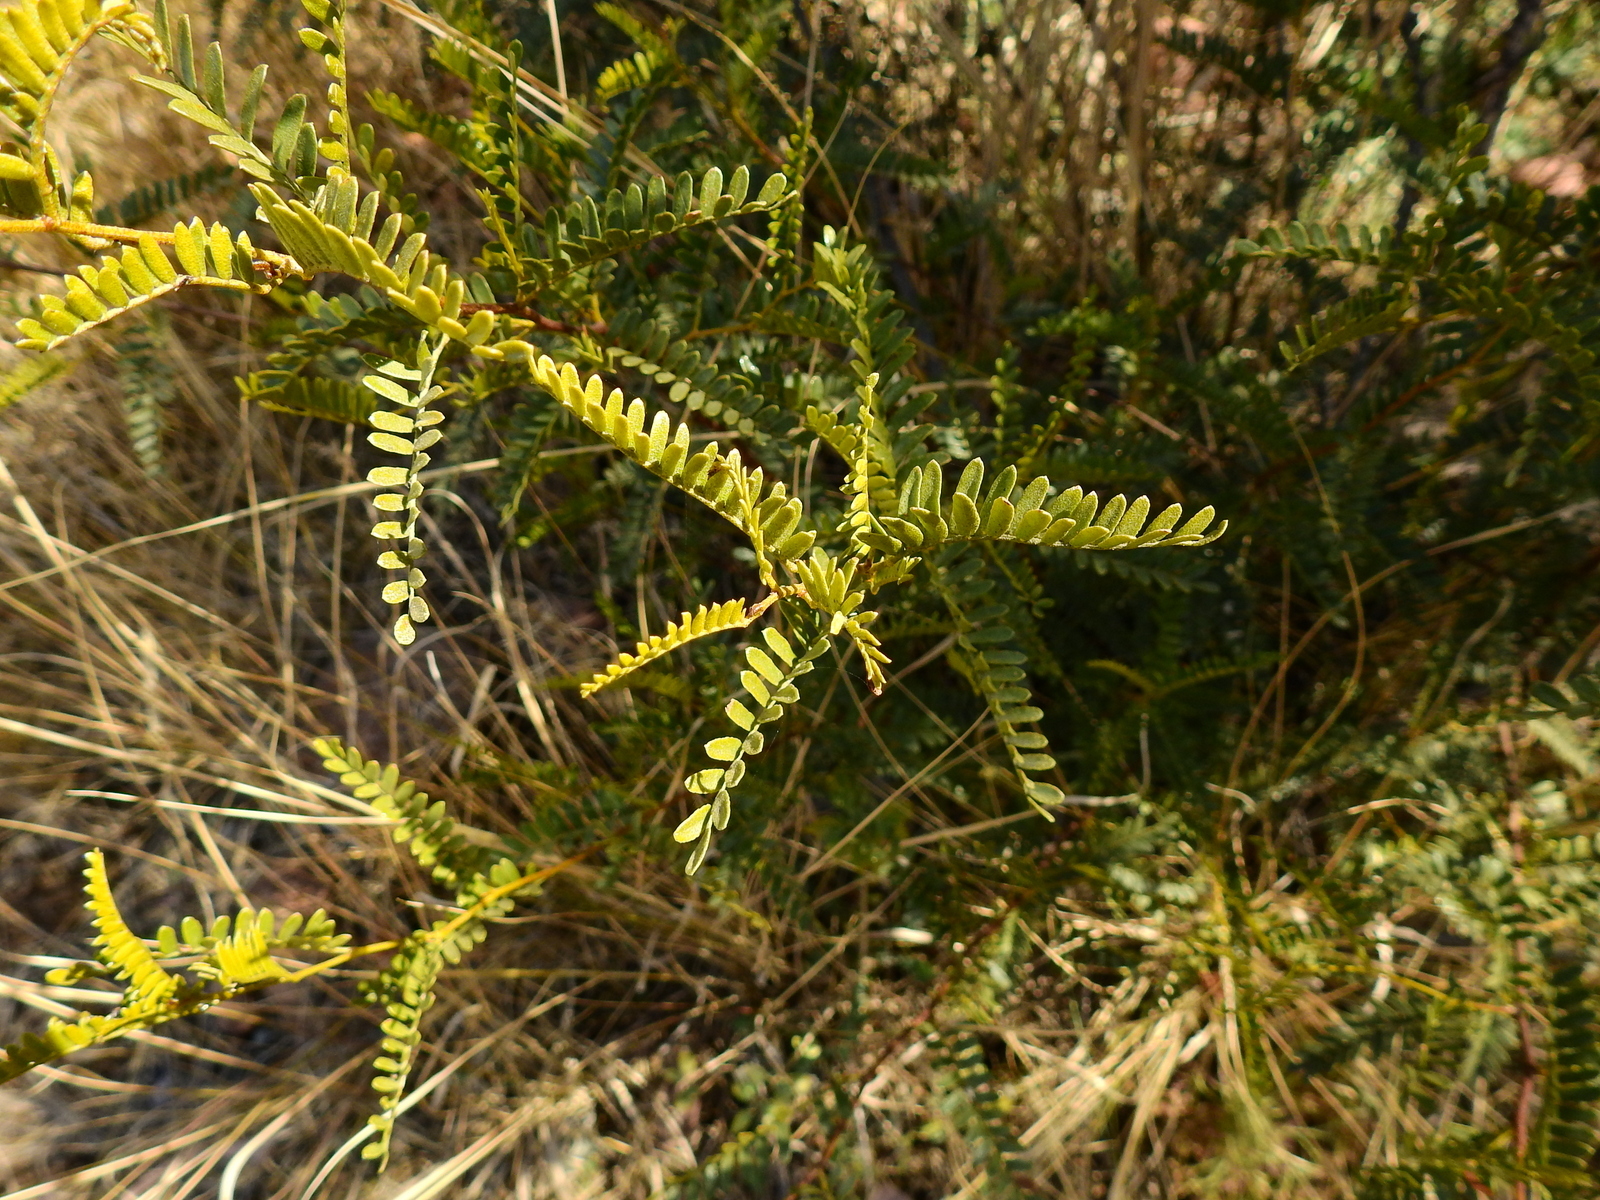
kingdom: Plantae
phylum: Tracheophyta
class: Magnoliopsida
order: Fabales
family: Fabaceae
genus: Zuccagnia
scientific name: Zuccagnia punctata
